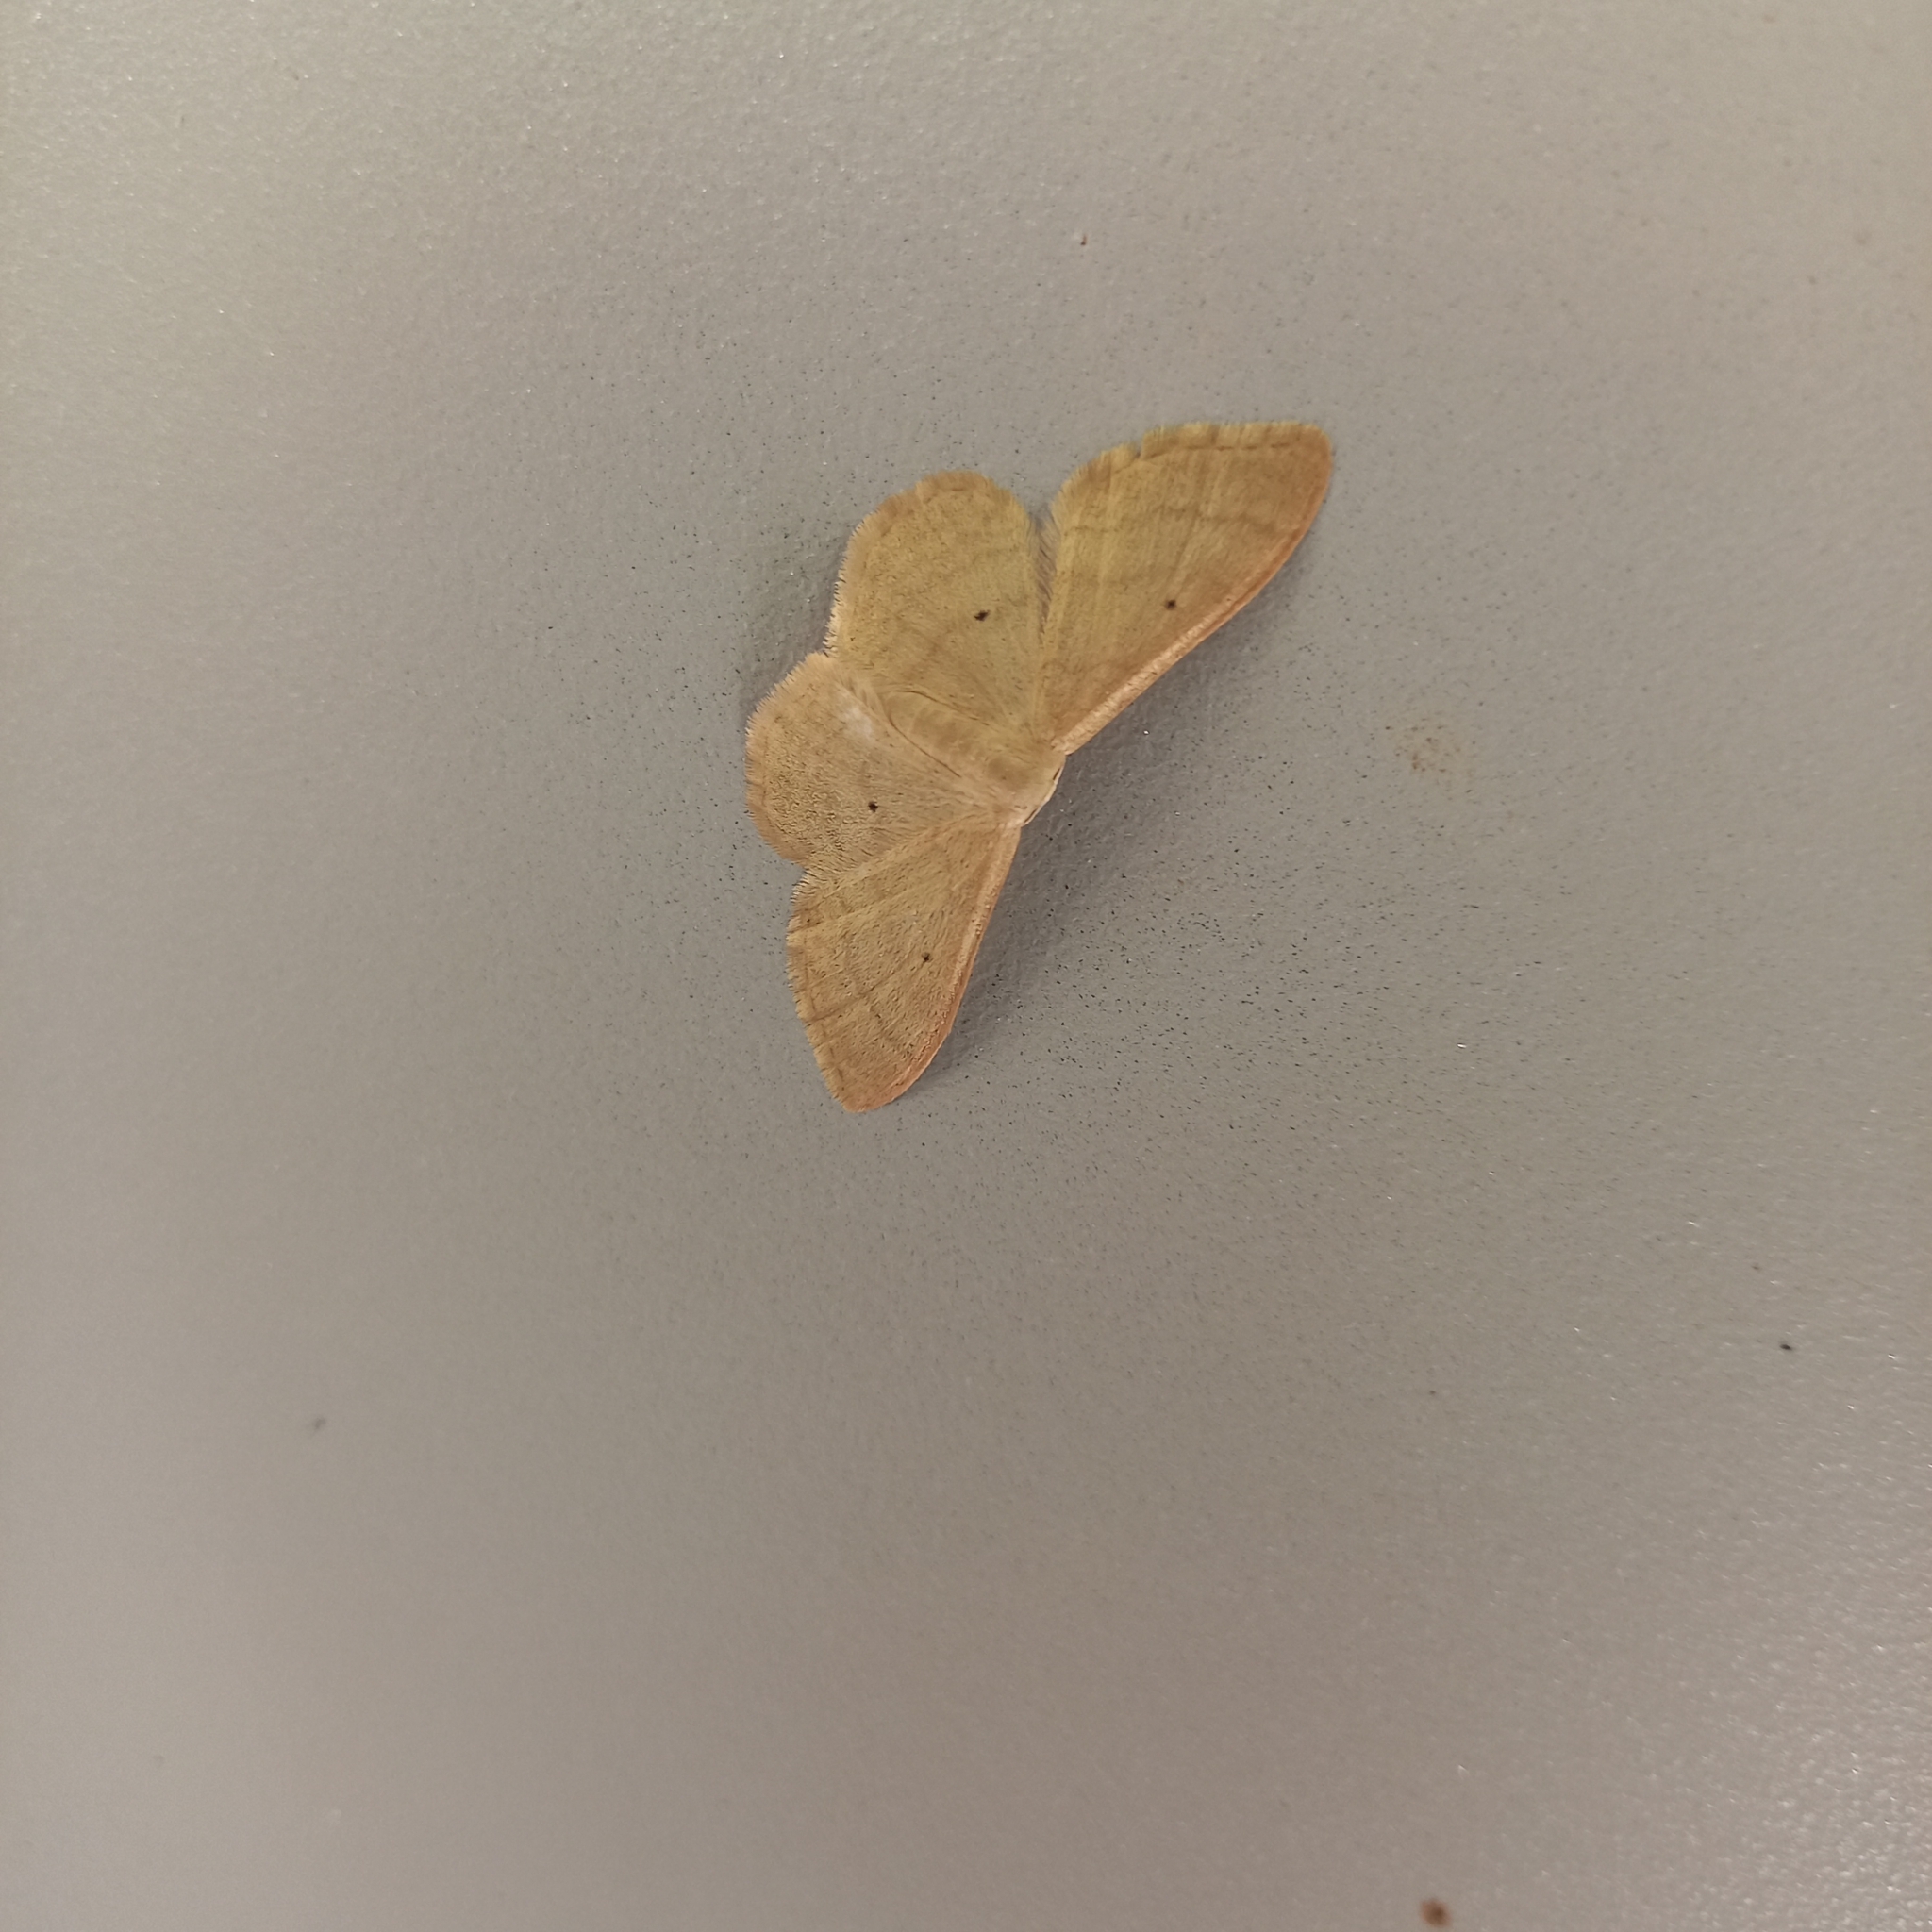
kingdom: Animalia
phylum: Arthropoda
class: Insecta
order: Lepidoptera
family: Geometridae
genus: Idaea
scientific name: Idaea straminata
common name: Plain wave
